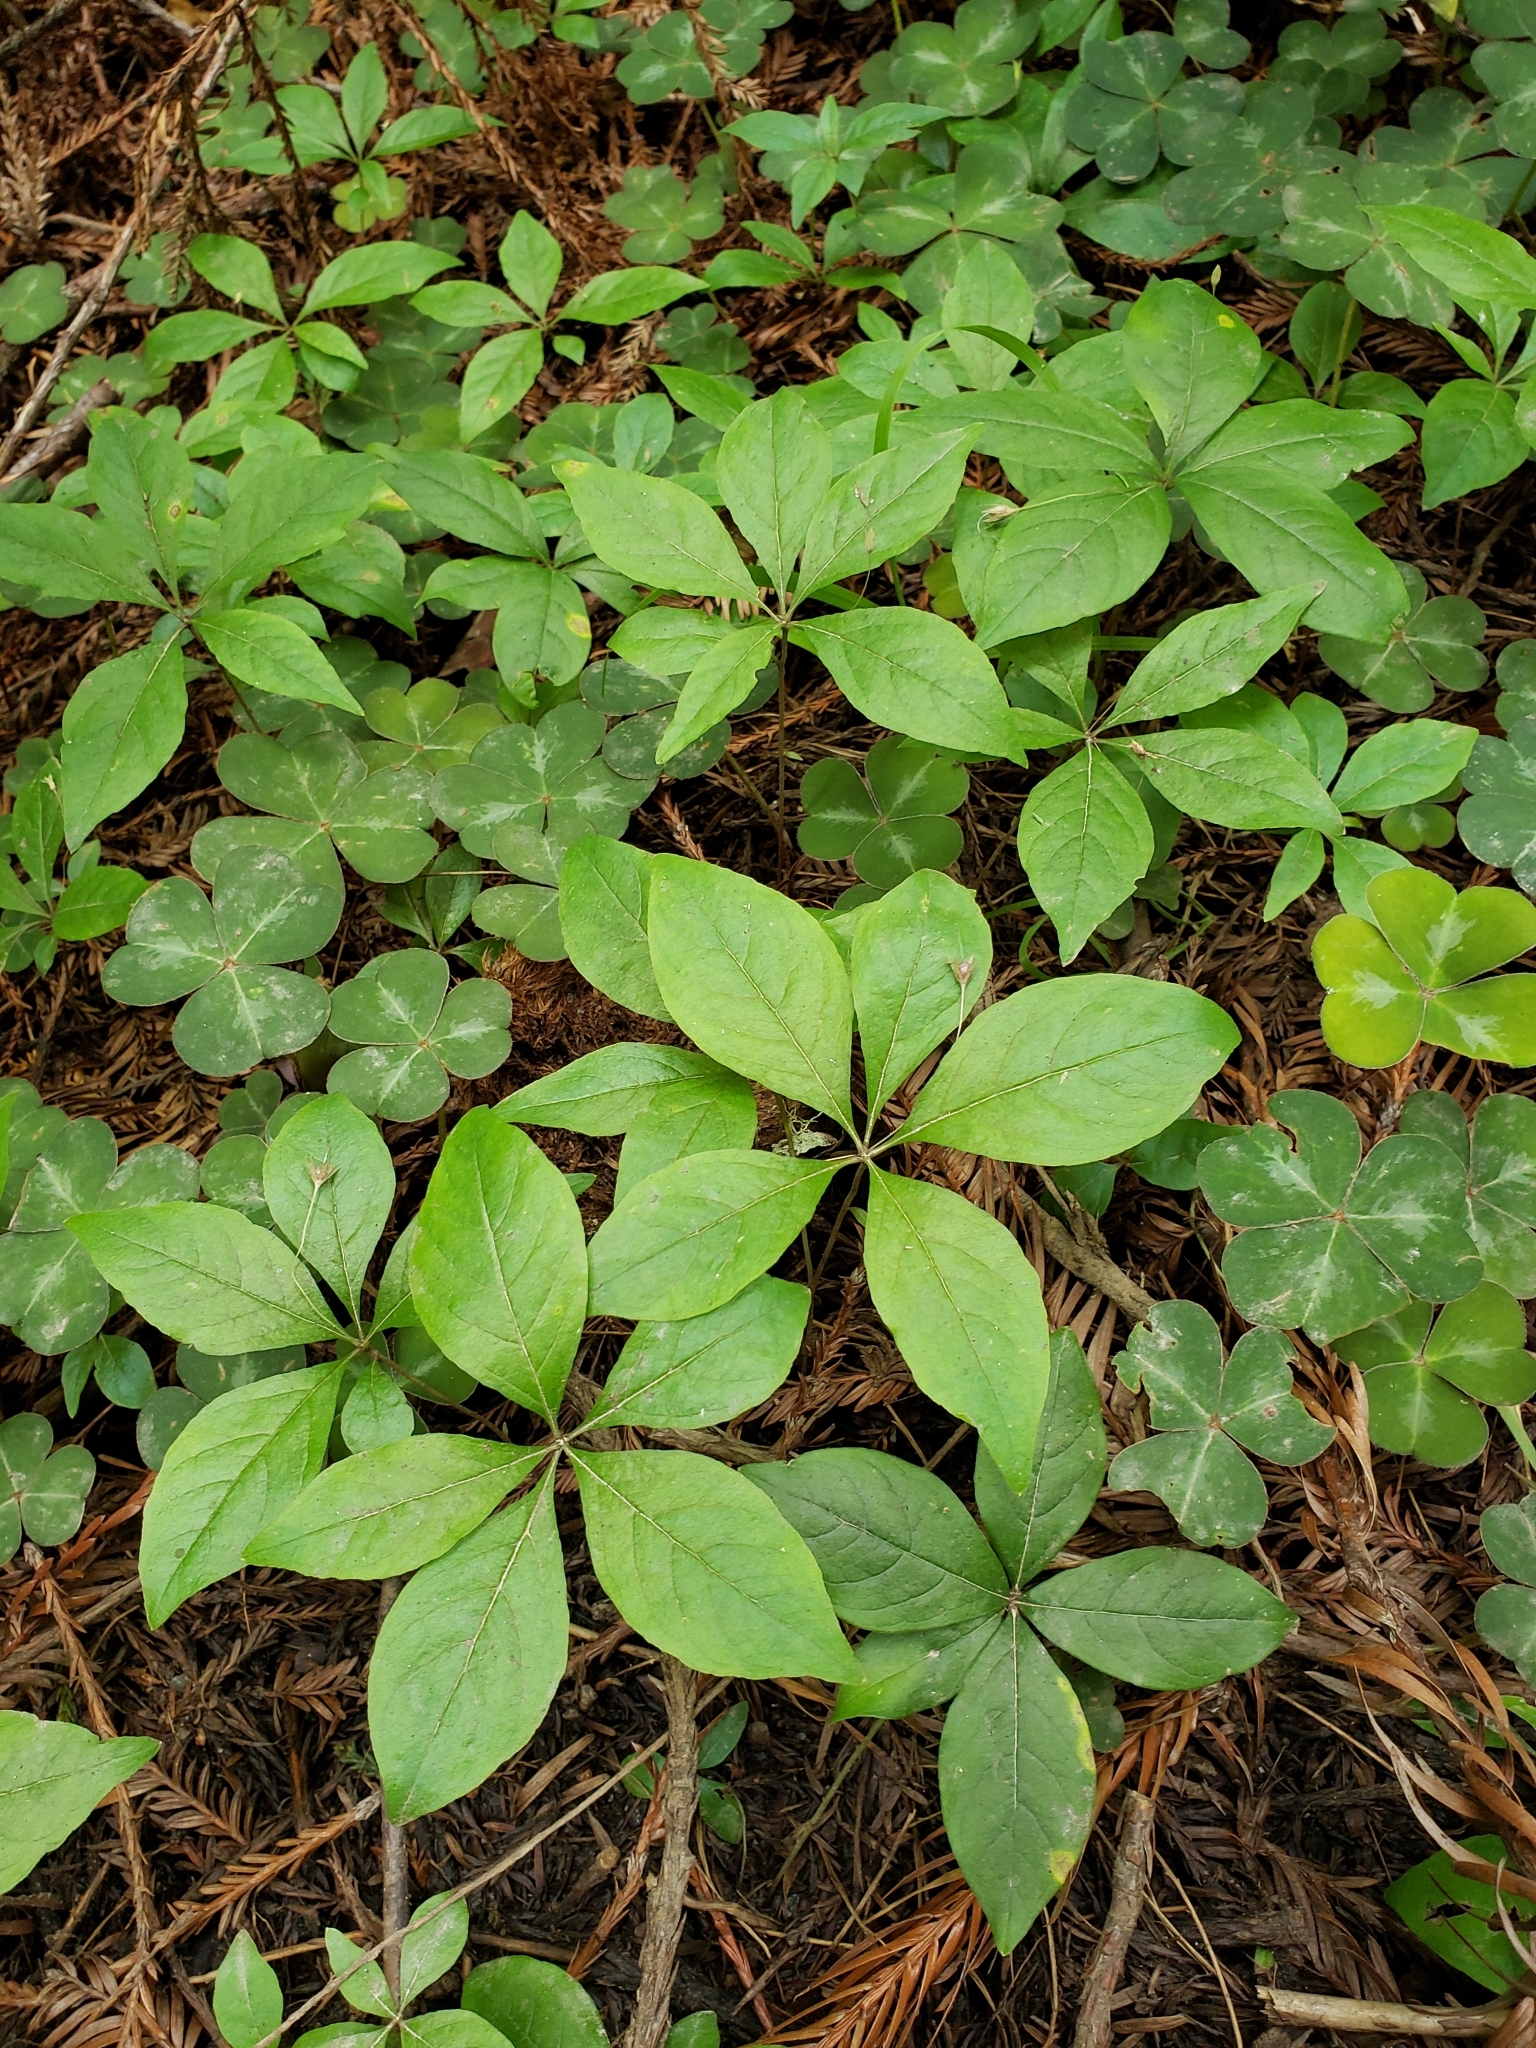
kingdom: Plantae
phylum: Tracheophyta
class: Magnoliopsida
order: Ericales
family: Primulaceae
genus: Lysimachia
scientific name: Lysimachia latifolia
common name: Pacific starflower
